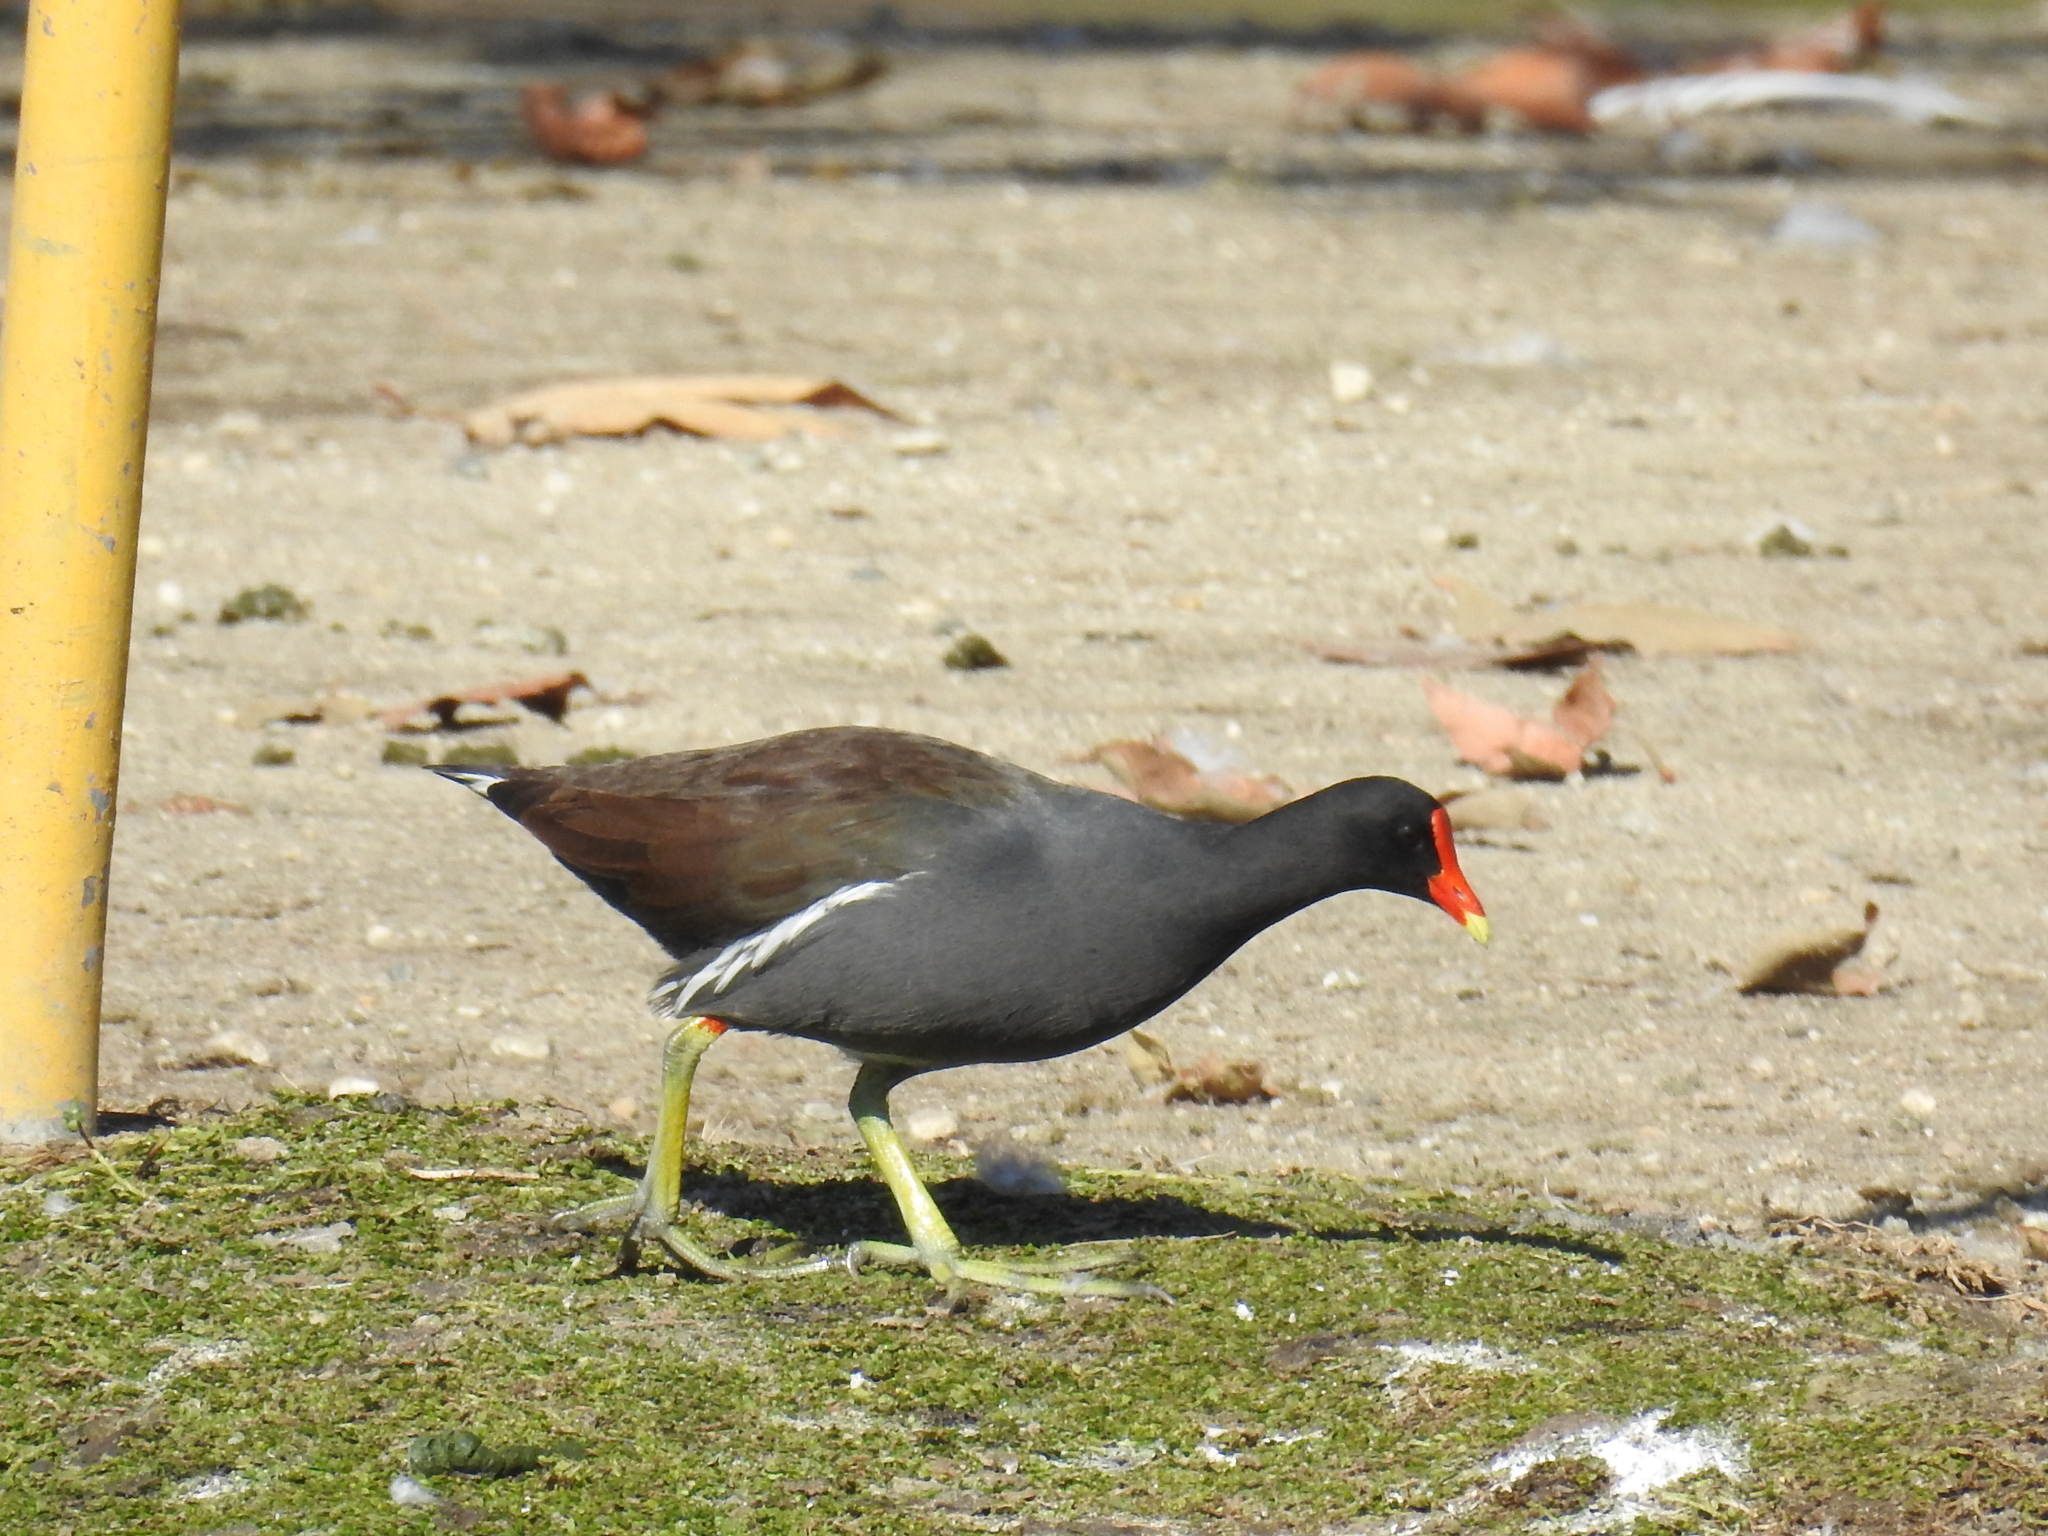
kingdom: Animalia
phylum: Chordata
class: Aves
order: Gruiformes
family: Rallidae
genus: Gallinula
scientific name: Gallinula chloropus
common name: Common moorhen
